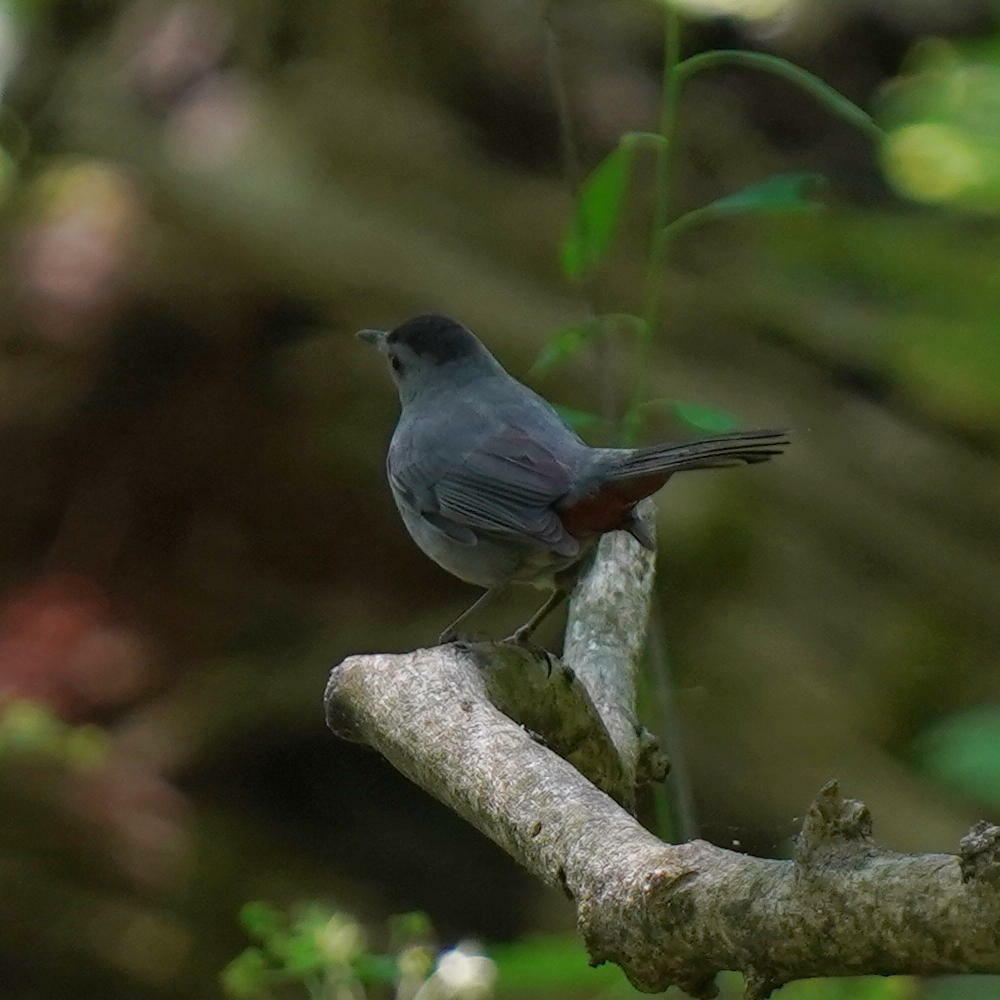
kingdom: Animalia
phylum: Chordata
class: Aves
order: Passeriformes
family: Mimidae
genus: Dumetella
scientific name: Dumetella carolinensis
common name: Gray catbird
